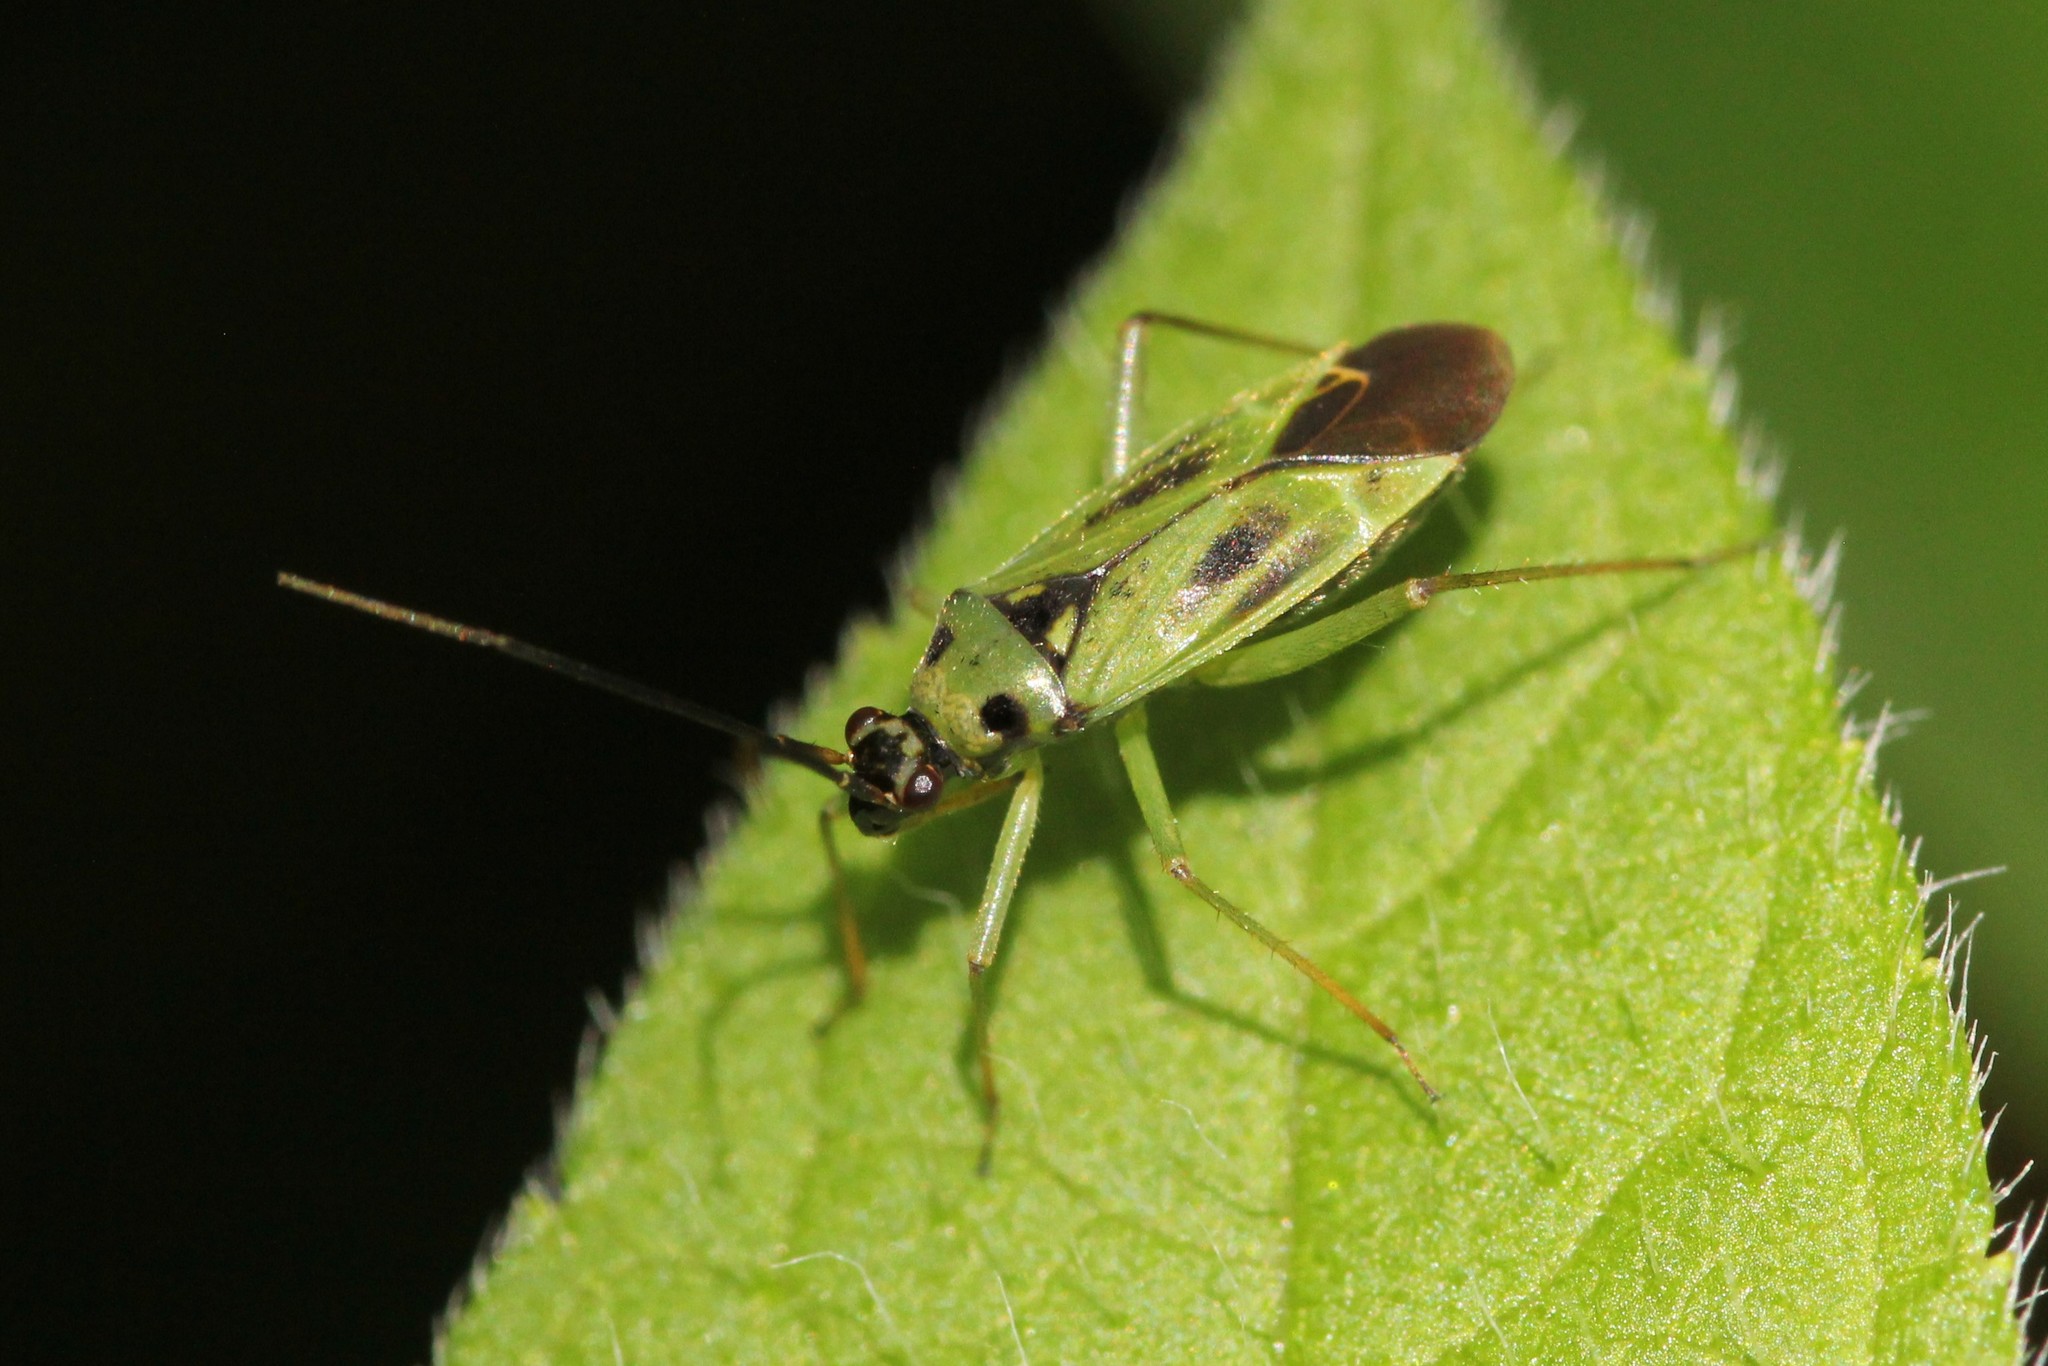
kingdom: Animalia
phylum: Arthropoda
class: Insecta
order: Hemiptera
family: Miridae
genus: Stenotus
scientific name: Stenotus binotatus
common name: Plant bug
